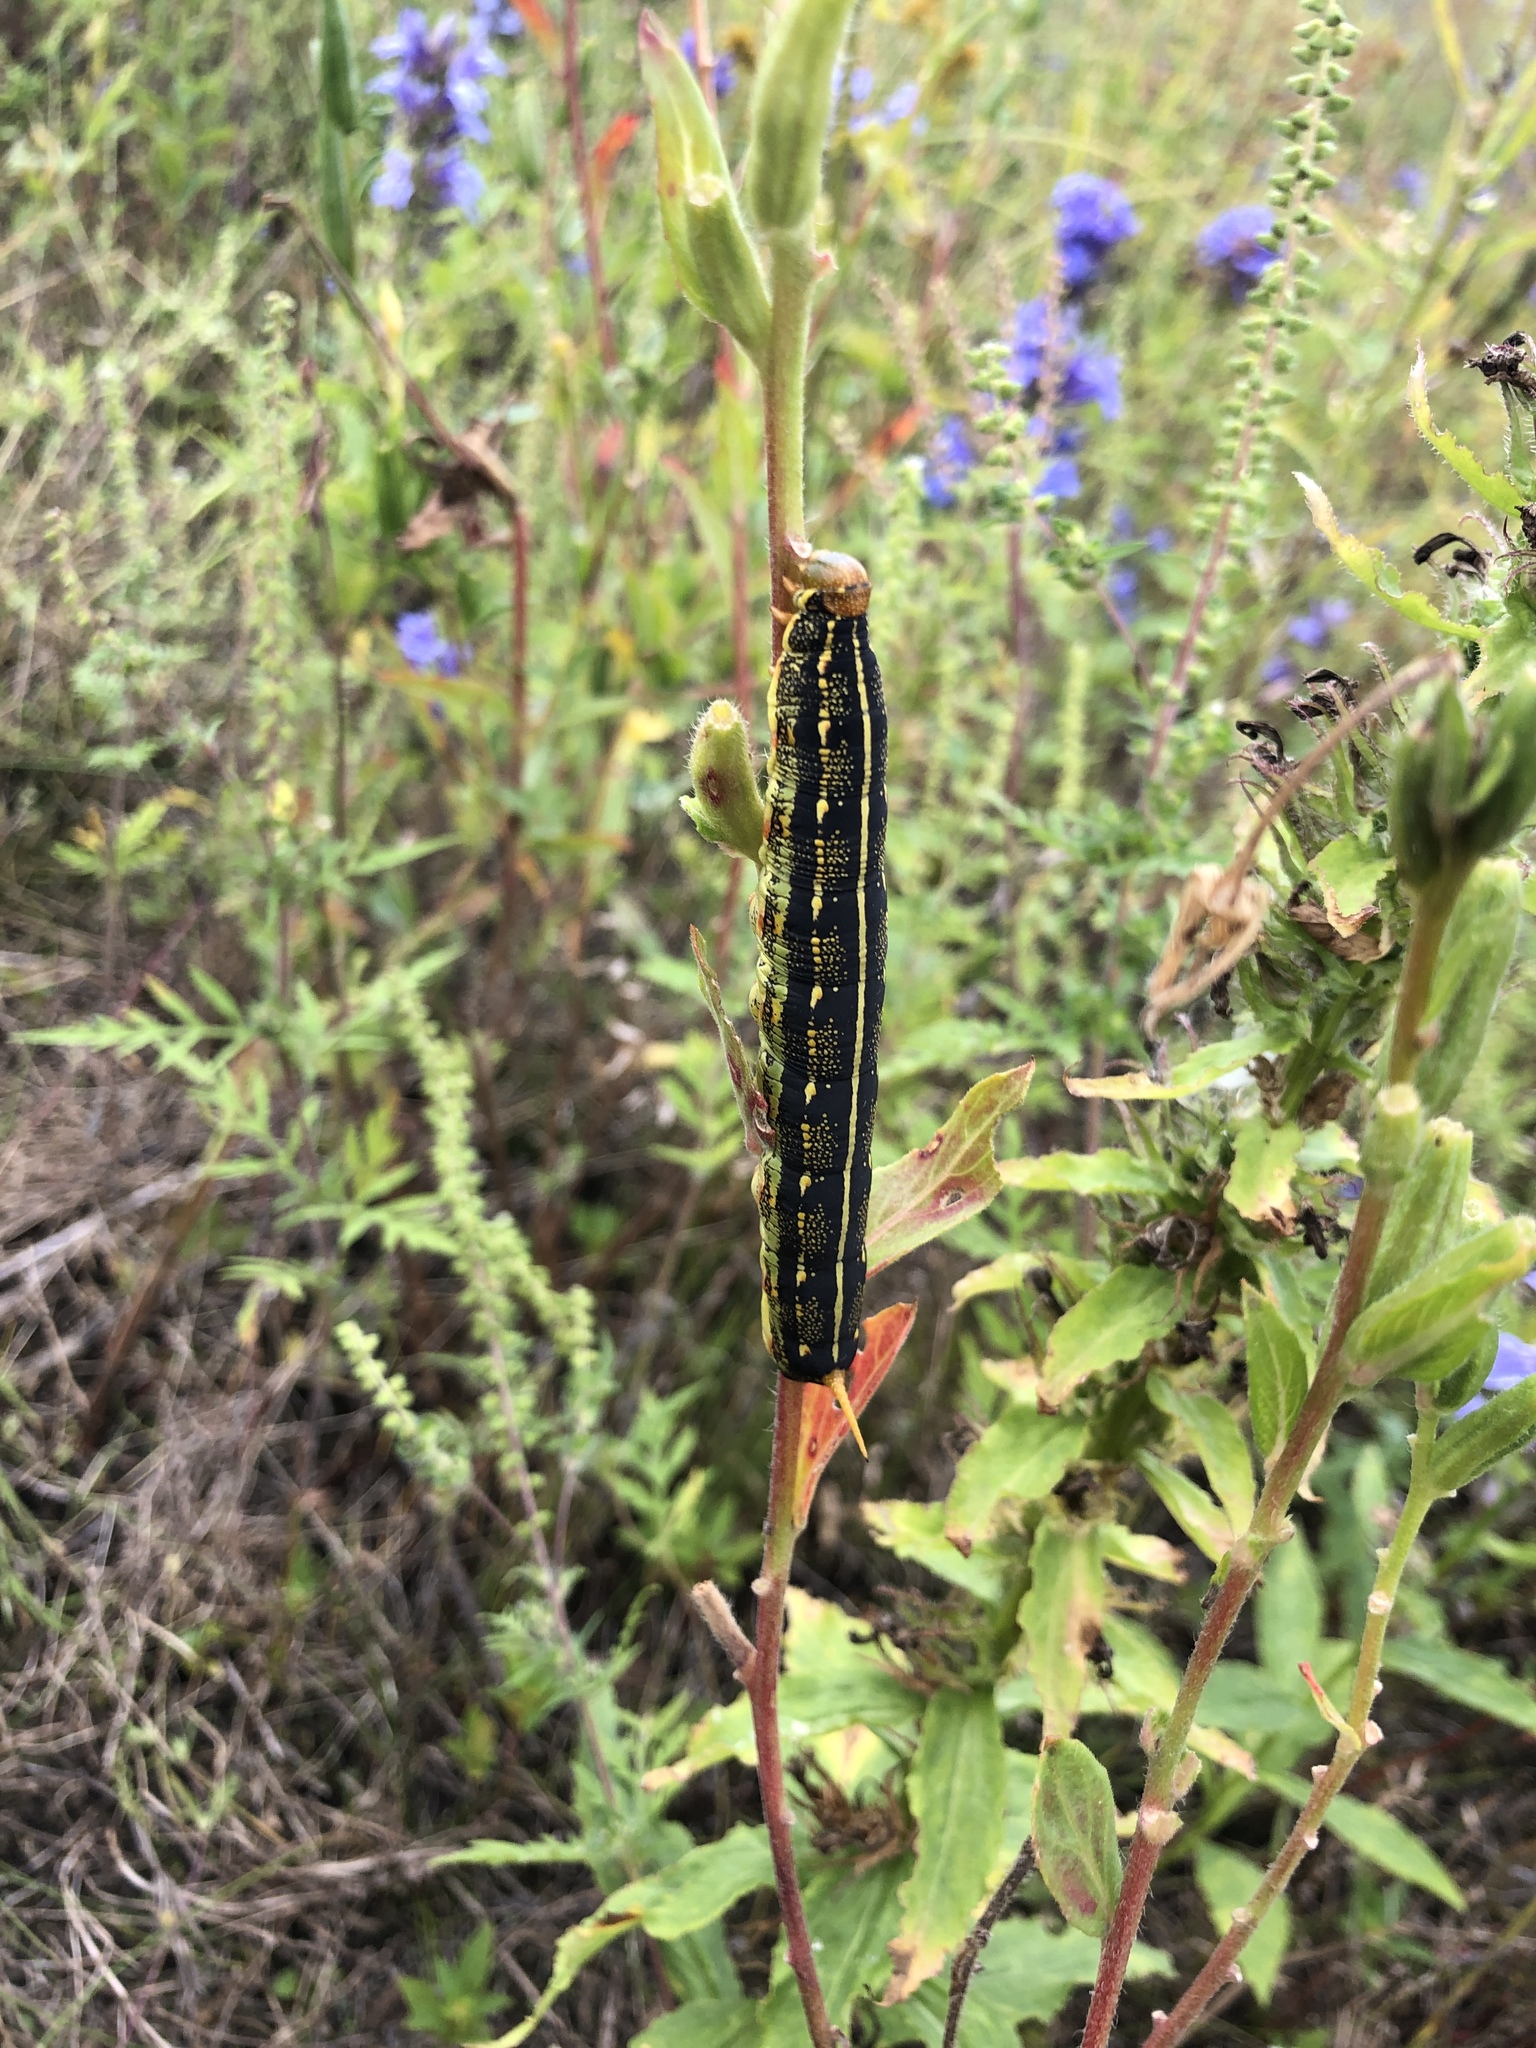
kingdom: Animalia
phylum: Arthropoda
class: Insecta
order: Lepidoptera
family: Sphingidae
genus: Hyles
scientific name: Hyles lineata
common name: White-lined sphinx
